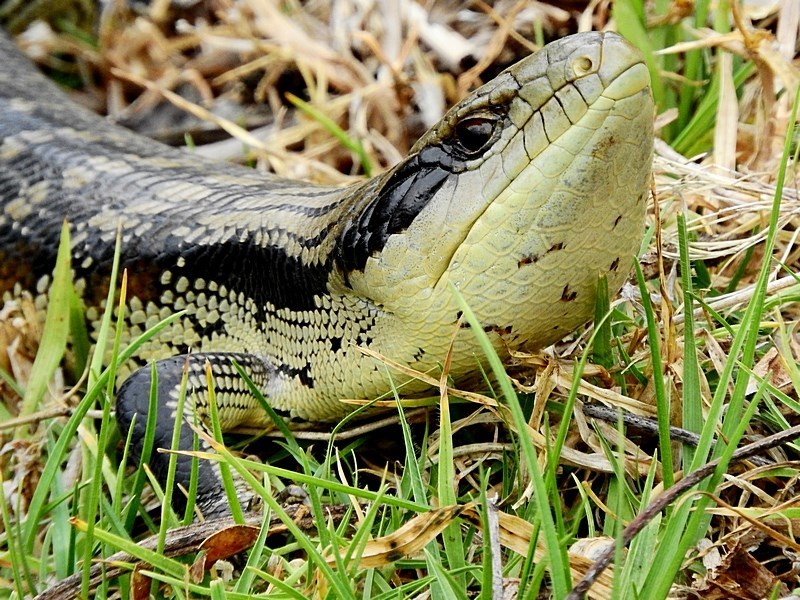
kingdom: Animalia
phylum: Chordata
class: Squamata
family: Scincidae
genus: Tiliqua
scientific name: Tiliqua scincoides
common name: Common bluetongue
